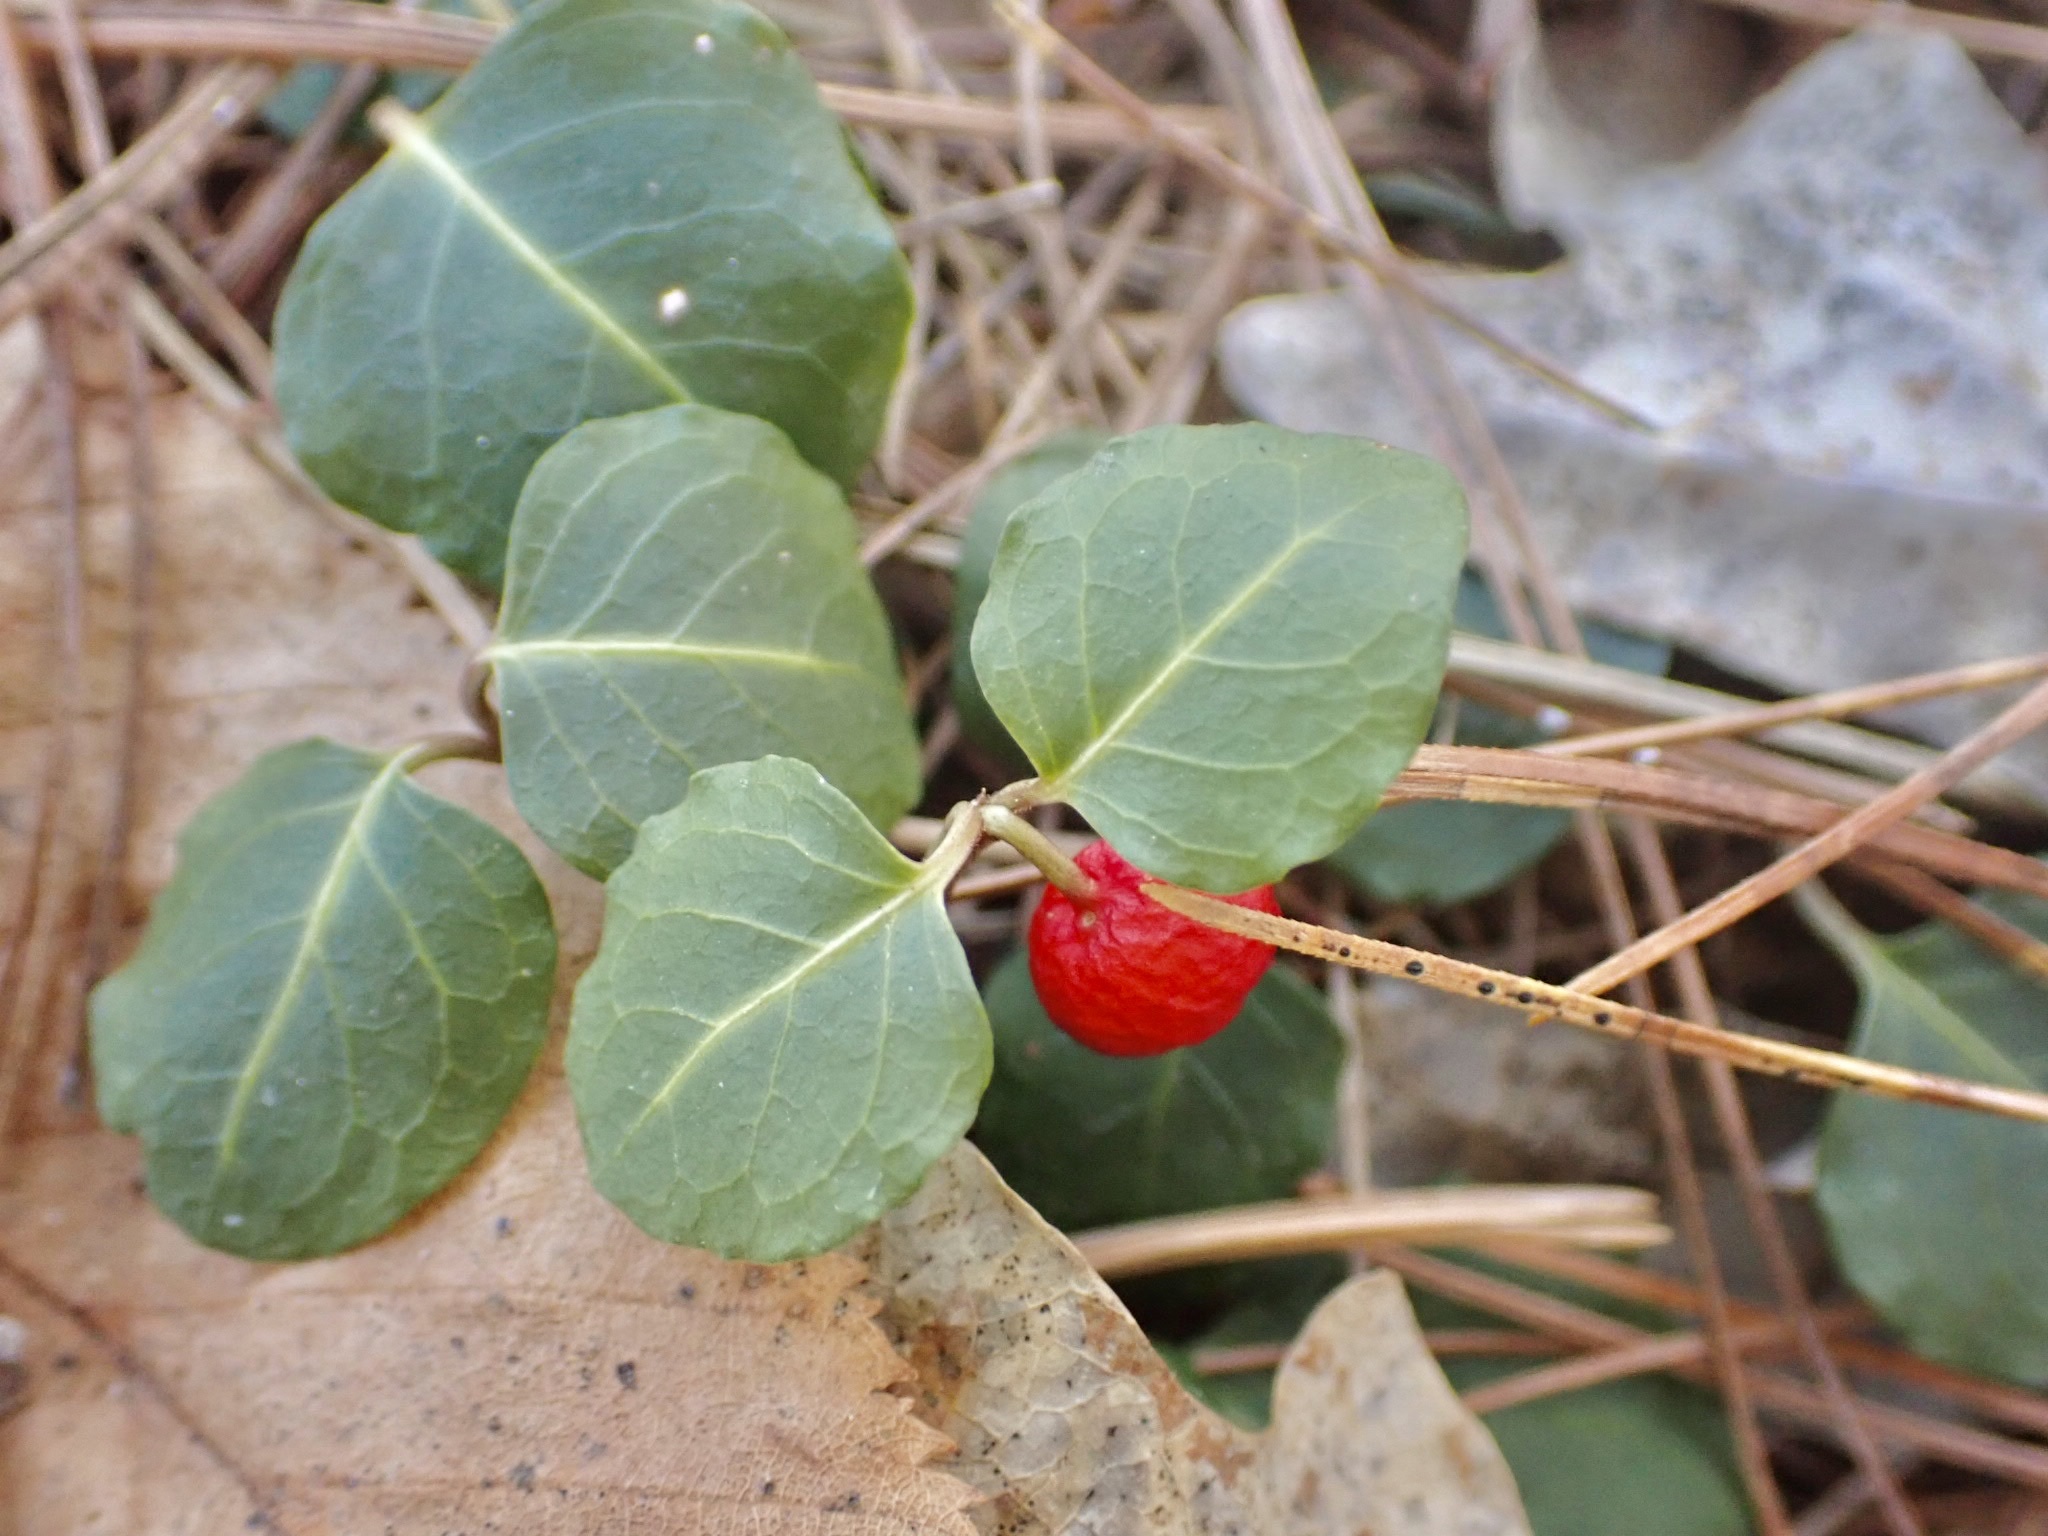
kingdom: Plantae
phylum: Tracheophyta
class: Magnoliopsida
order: Gentianales
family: Rubiaceae
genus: Mitchella
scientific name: Mitchella repens
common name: Partridge-berry
